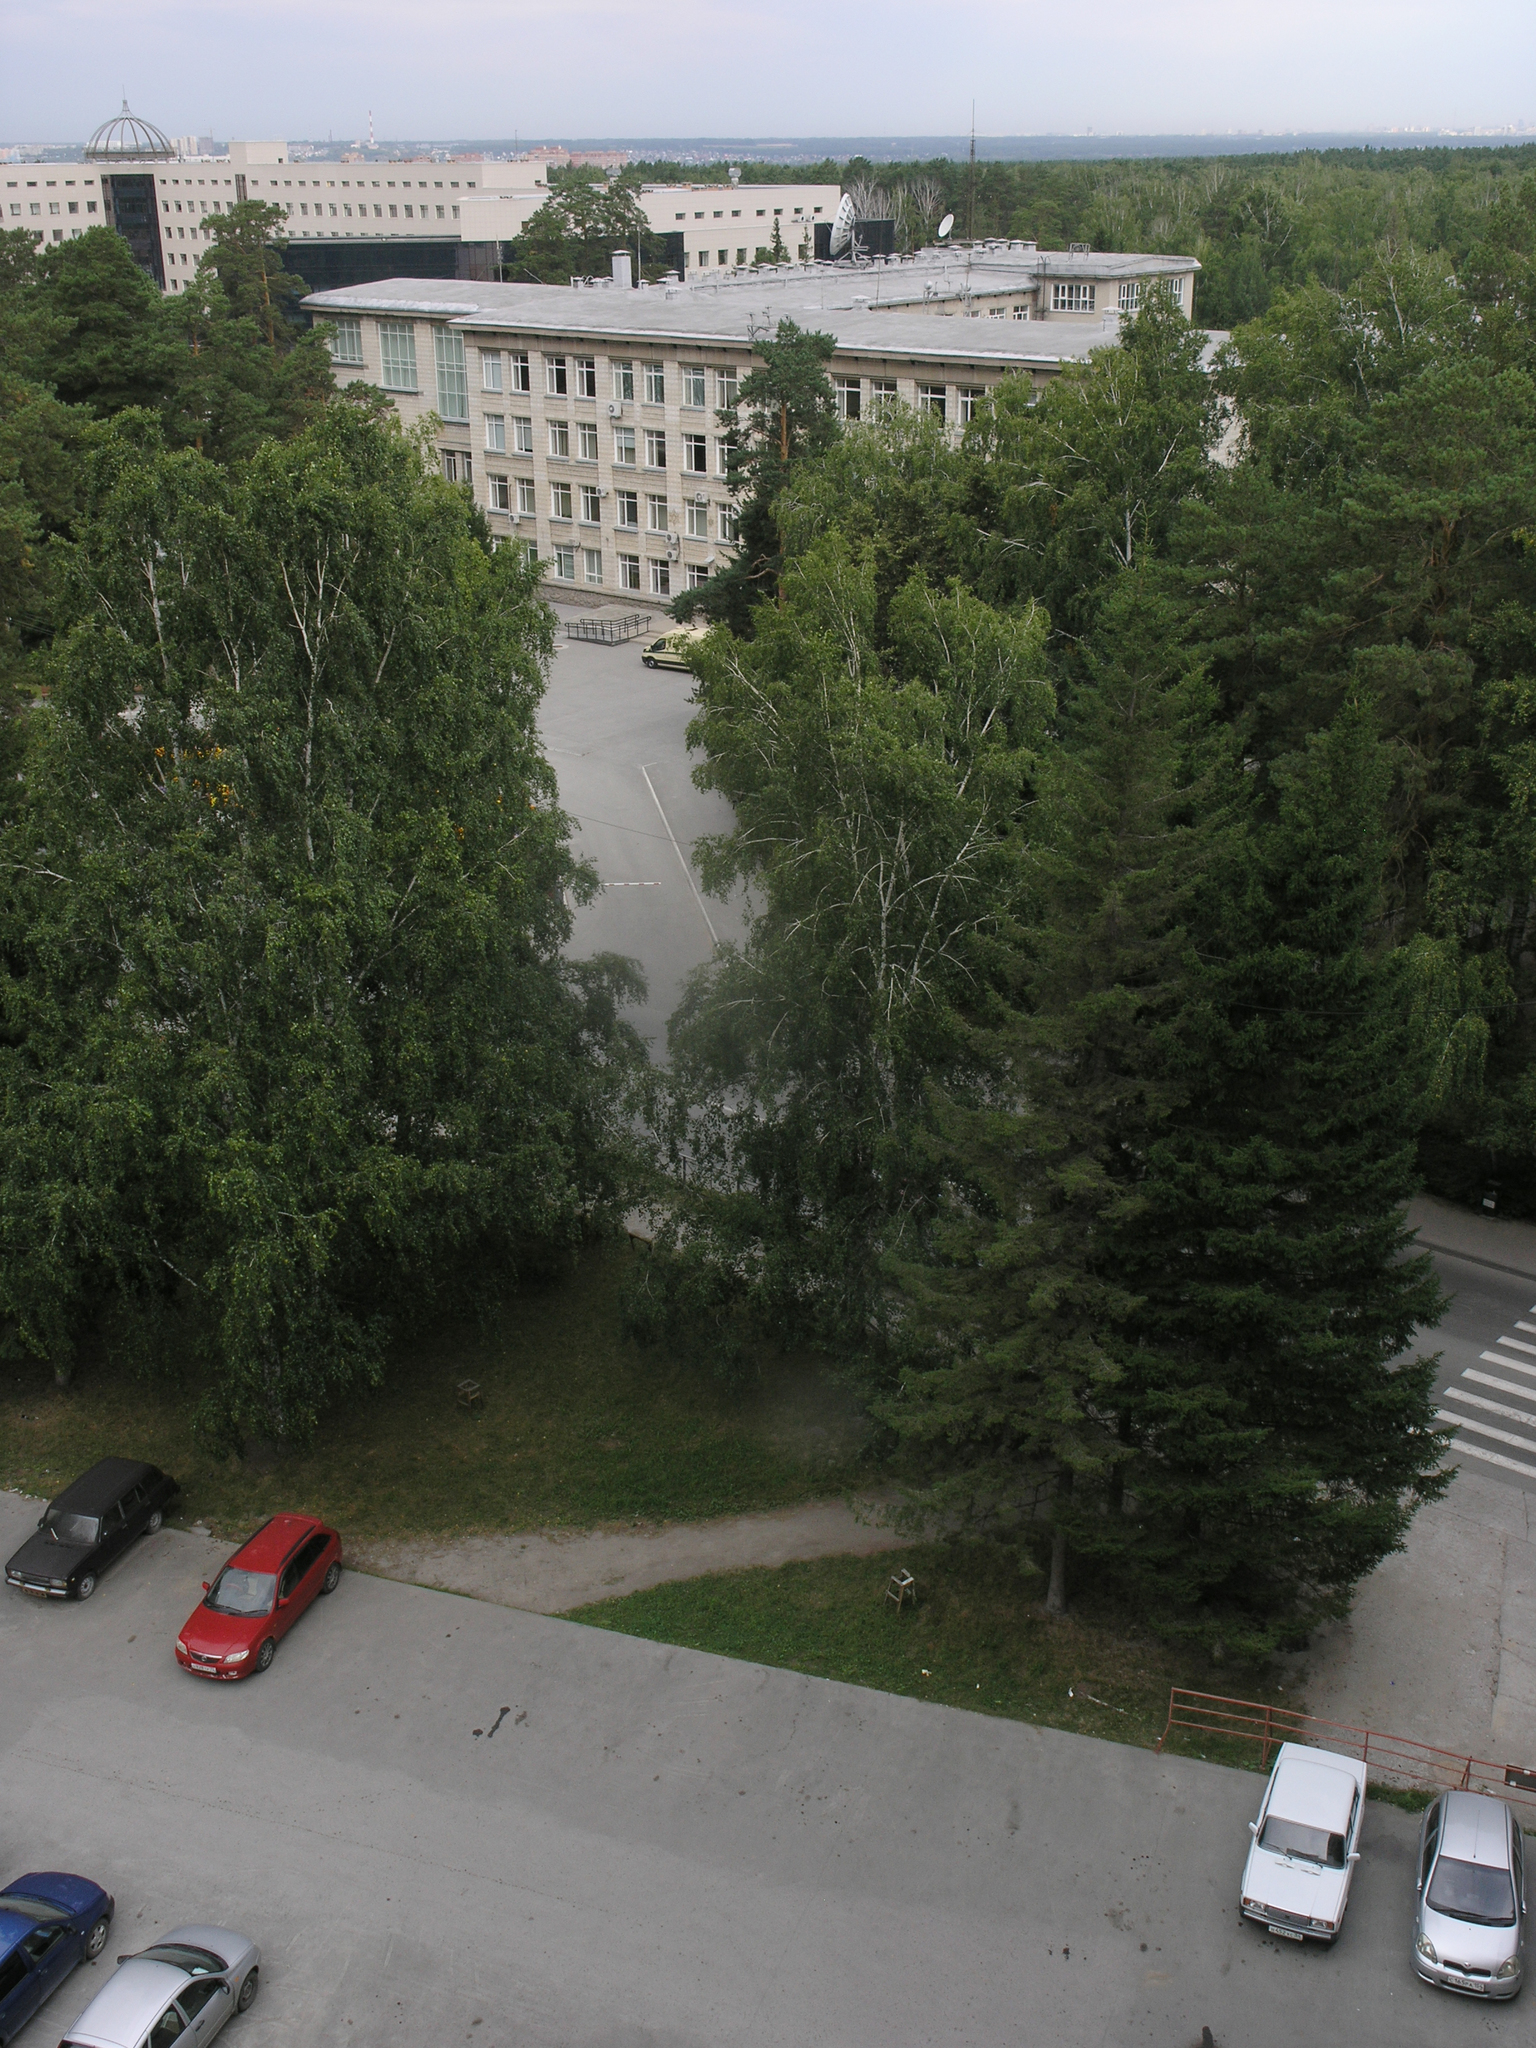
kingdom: Plantae
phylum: Tracheophyta
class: Magnoliopsida
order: Fagales
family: Betulaceae
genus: Betula
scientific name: Betula pendula
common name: Silver birch
